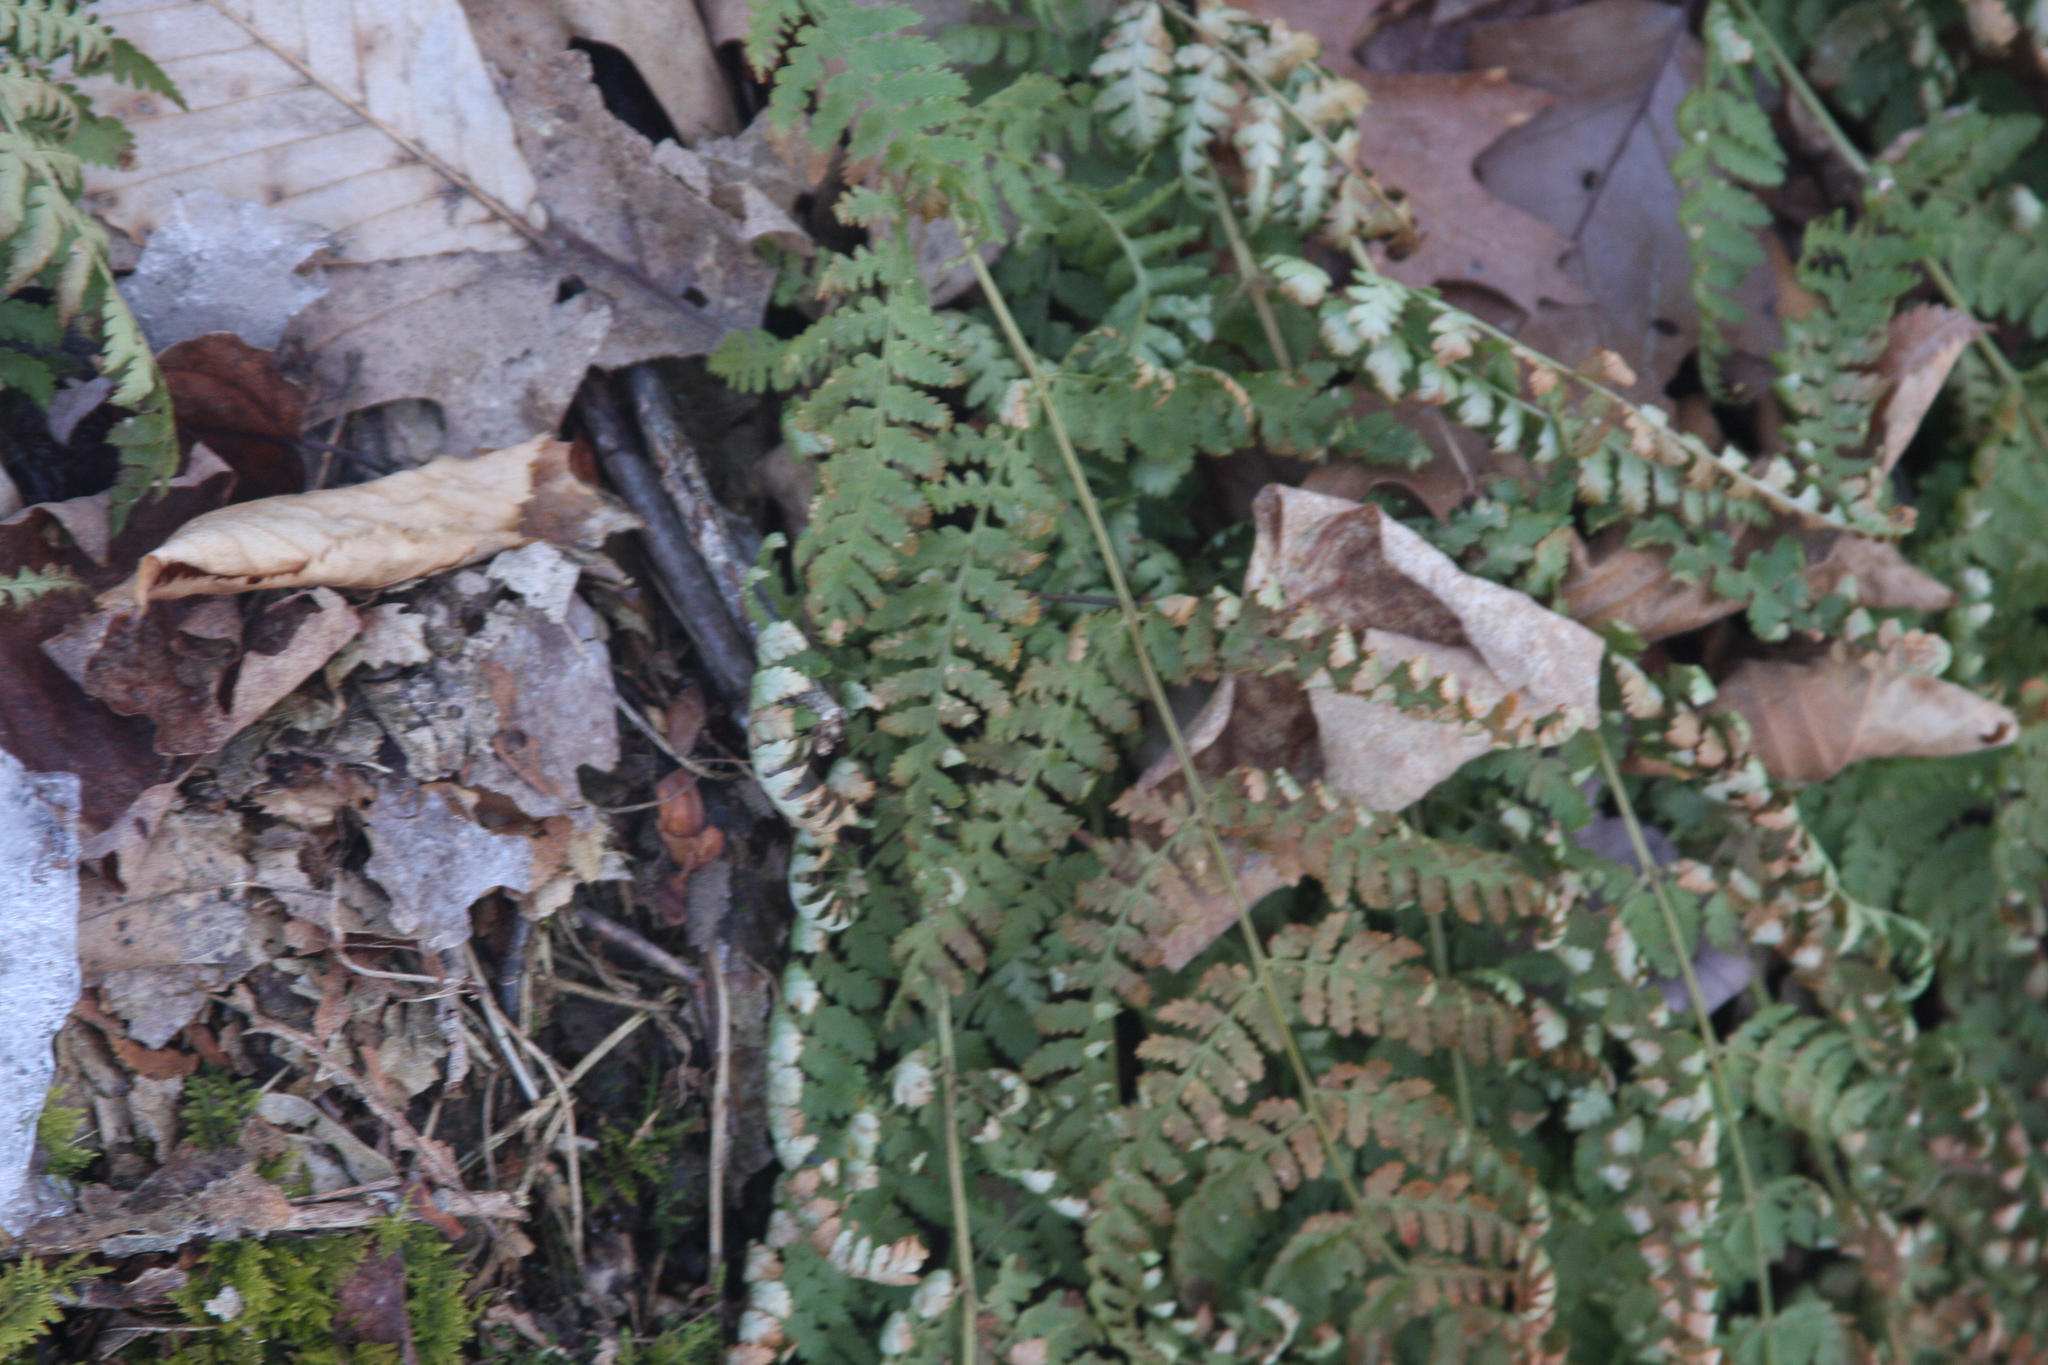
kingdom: Plantae
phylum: Tracheophyta
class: Polypodiopsida
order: Polypodiales
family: Dryopteridaceae
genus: Dryopteris
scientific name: Dryopteris intermedia
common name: Evergreen wood fern
